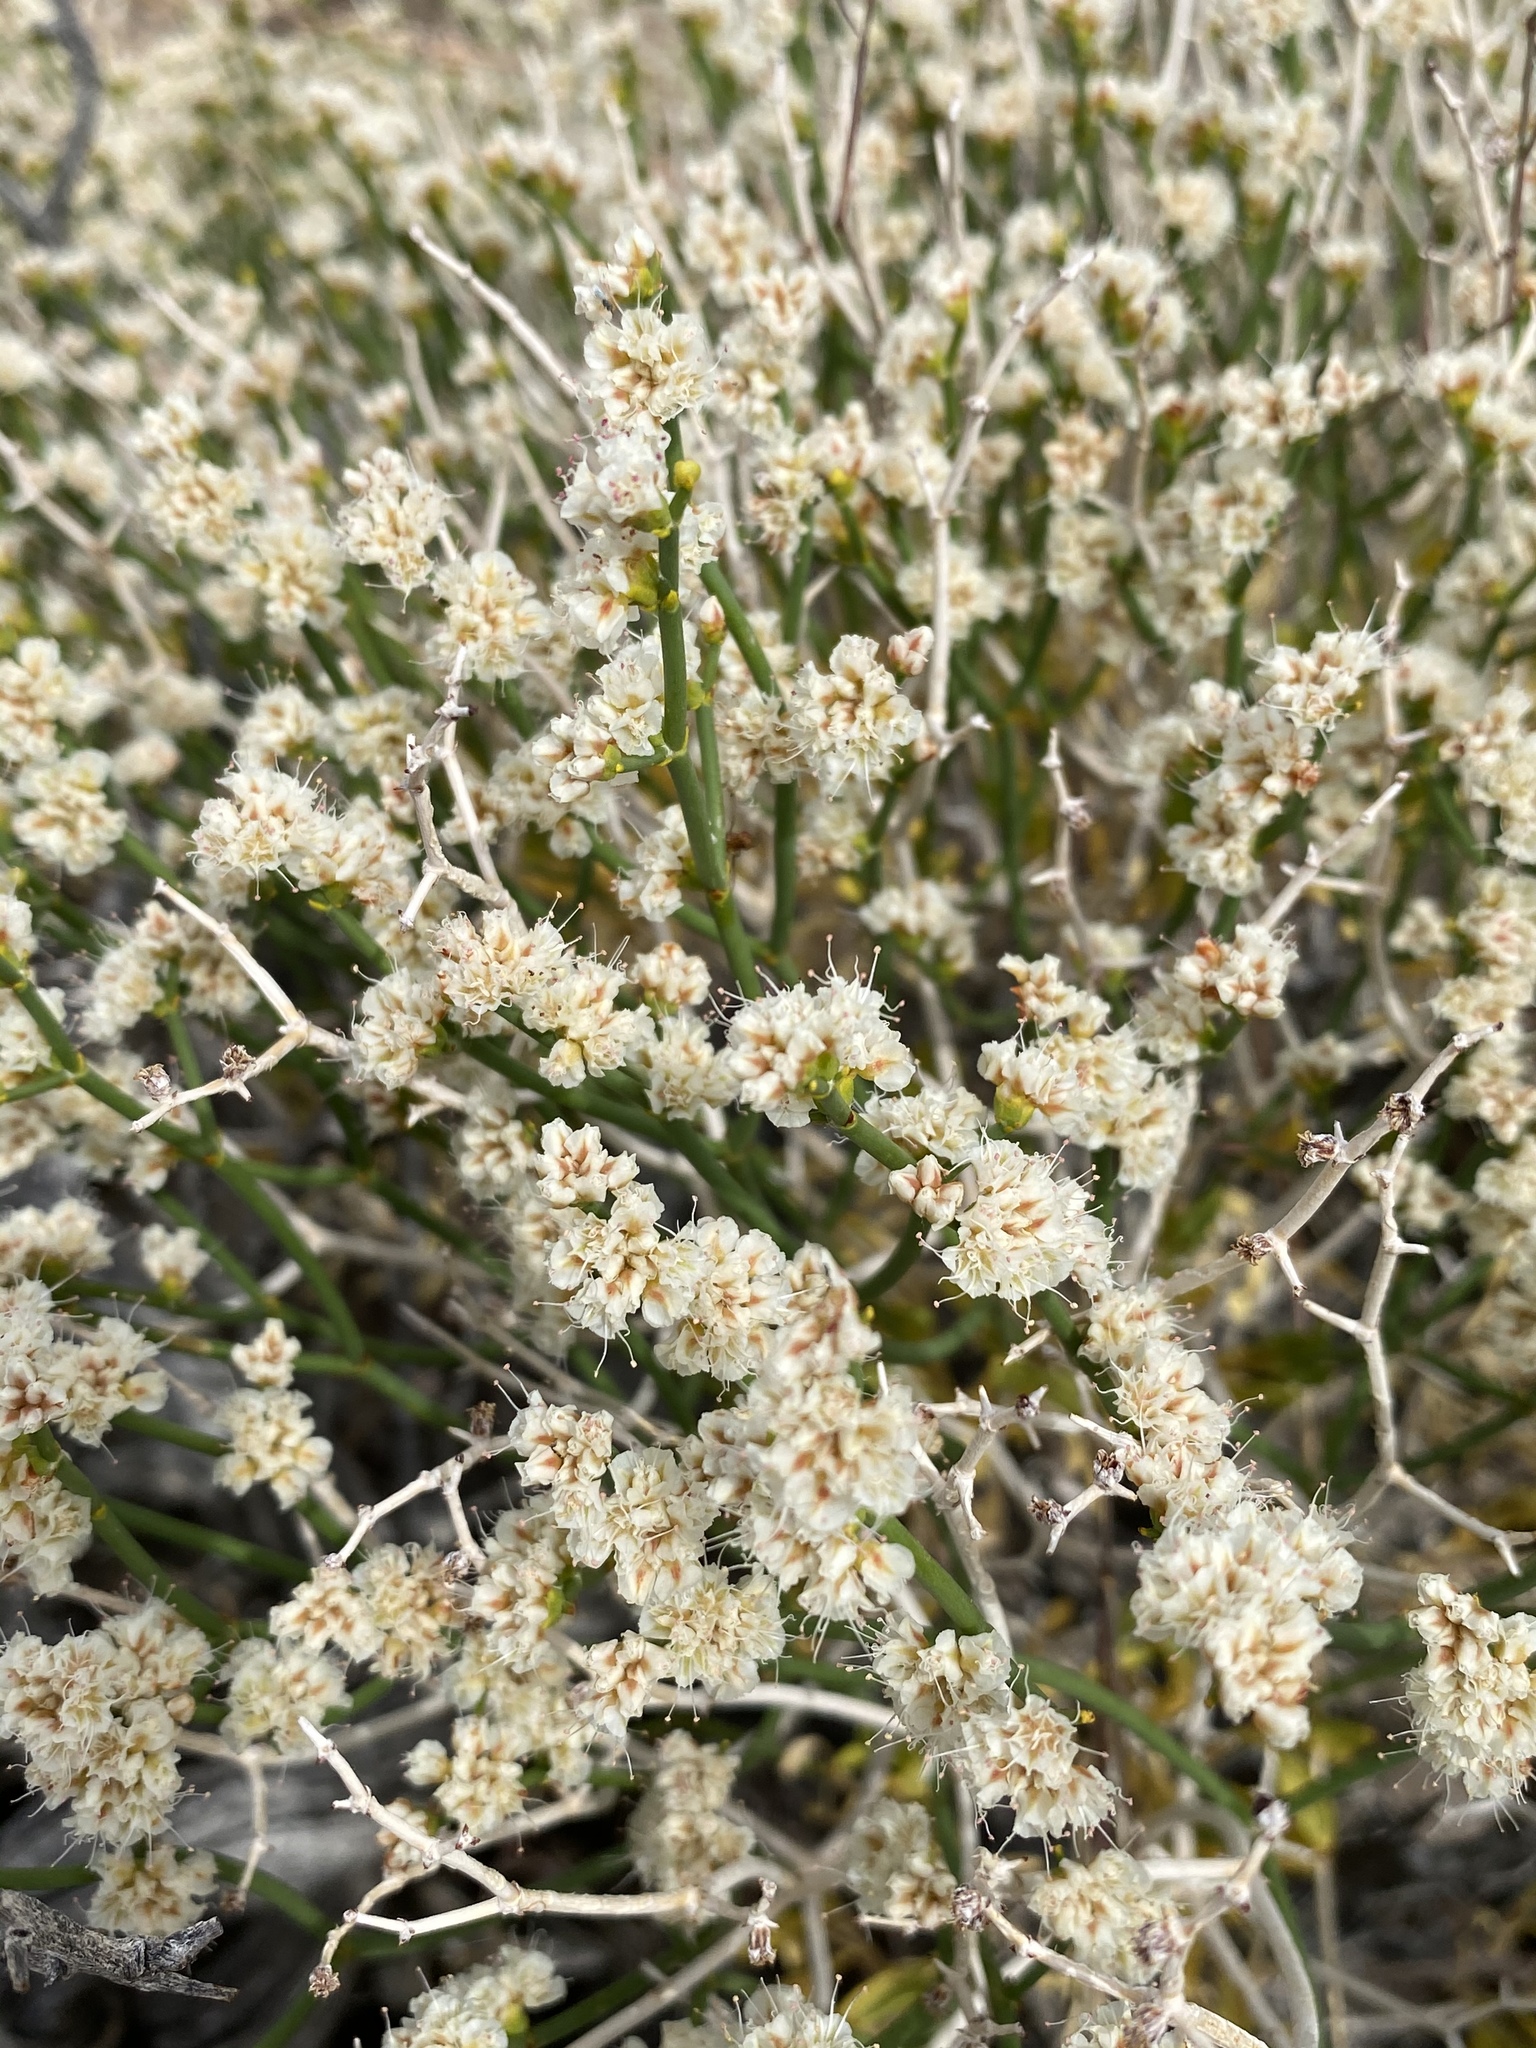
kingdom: Plantae
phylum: Tracheophyta
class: Magnoliopsida
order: Caryophyllales
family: Polygonaceae
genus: Eriogonum
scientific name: Eriogonum heermannii
